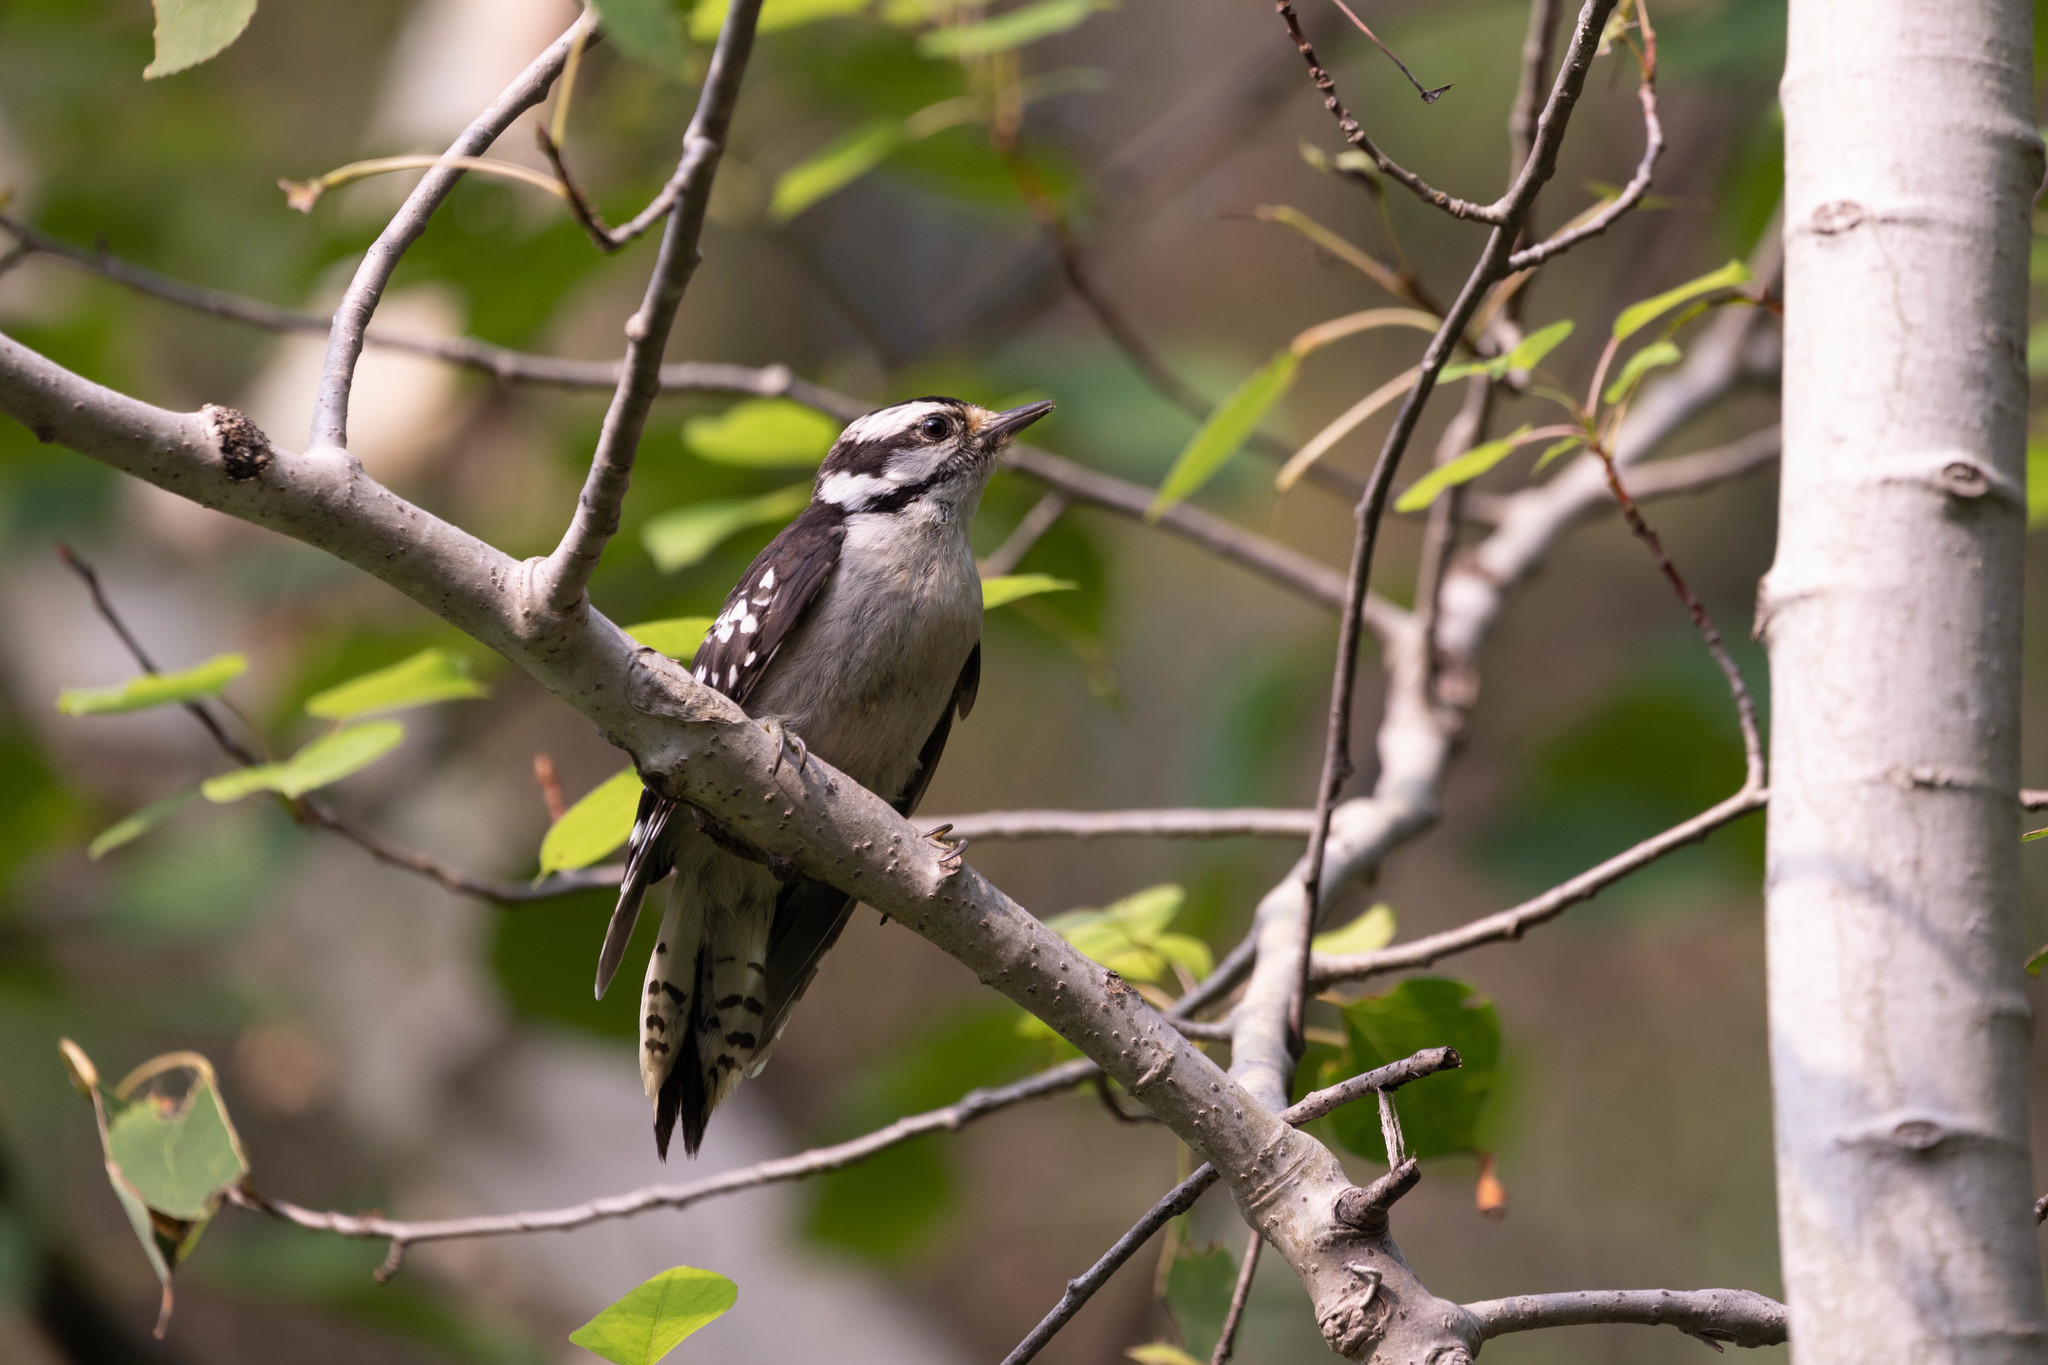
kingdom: Animalia
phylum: Chordata
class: Aves
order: Piciformes
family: Picidae
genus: Dryobates
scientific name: Dryobates pubescens
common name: Downy woodpecker
